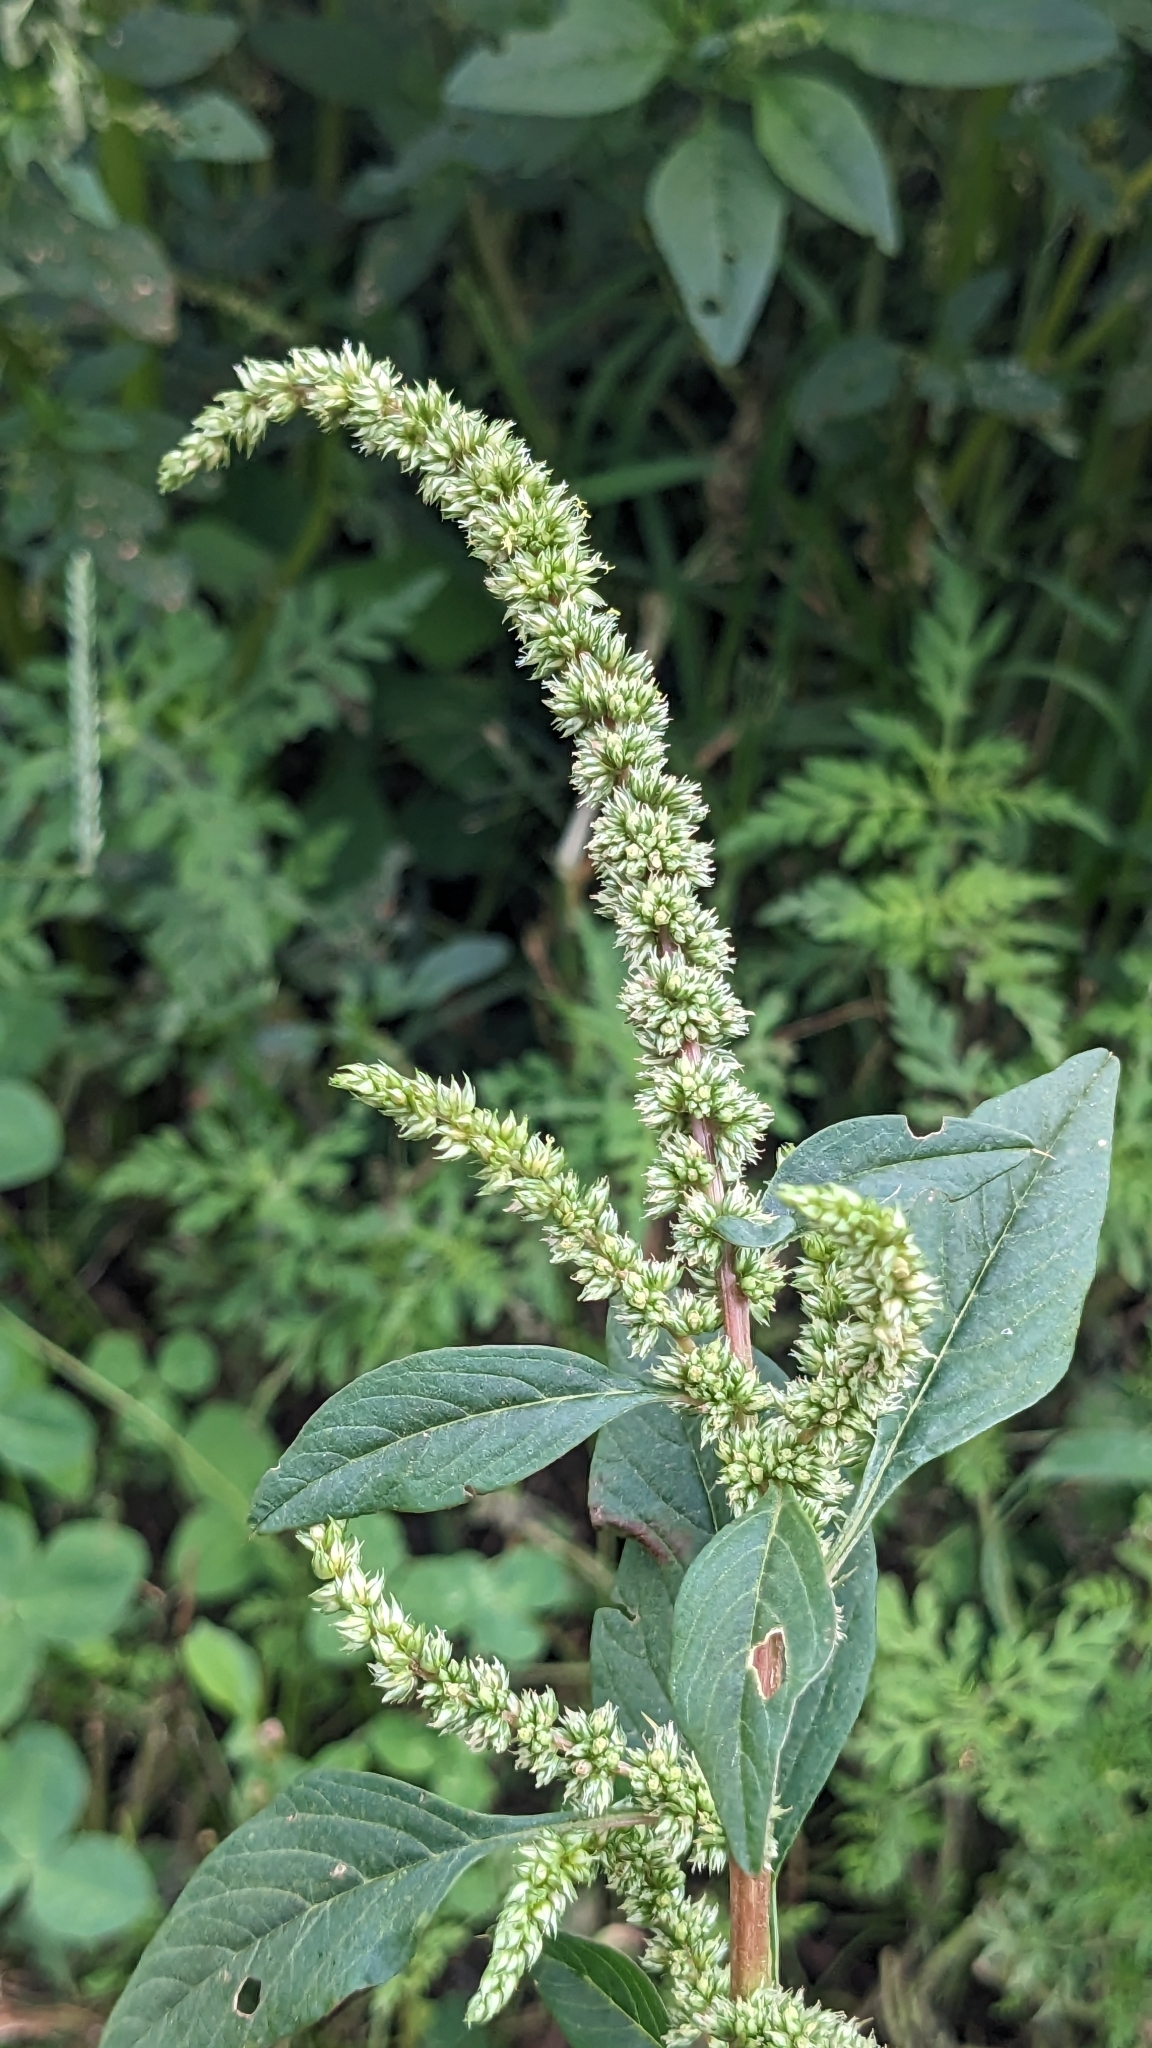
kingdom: Plantae
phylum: Tracheophyta
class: Magnoliopsida
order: Caryophyllales
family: Amaranthaceae
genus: Amaranthus
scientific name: Amaranthus spinosus
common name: Spiny amaranth
